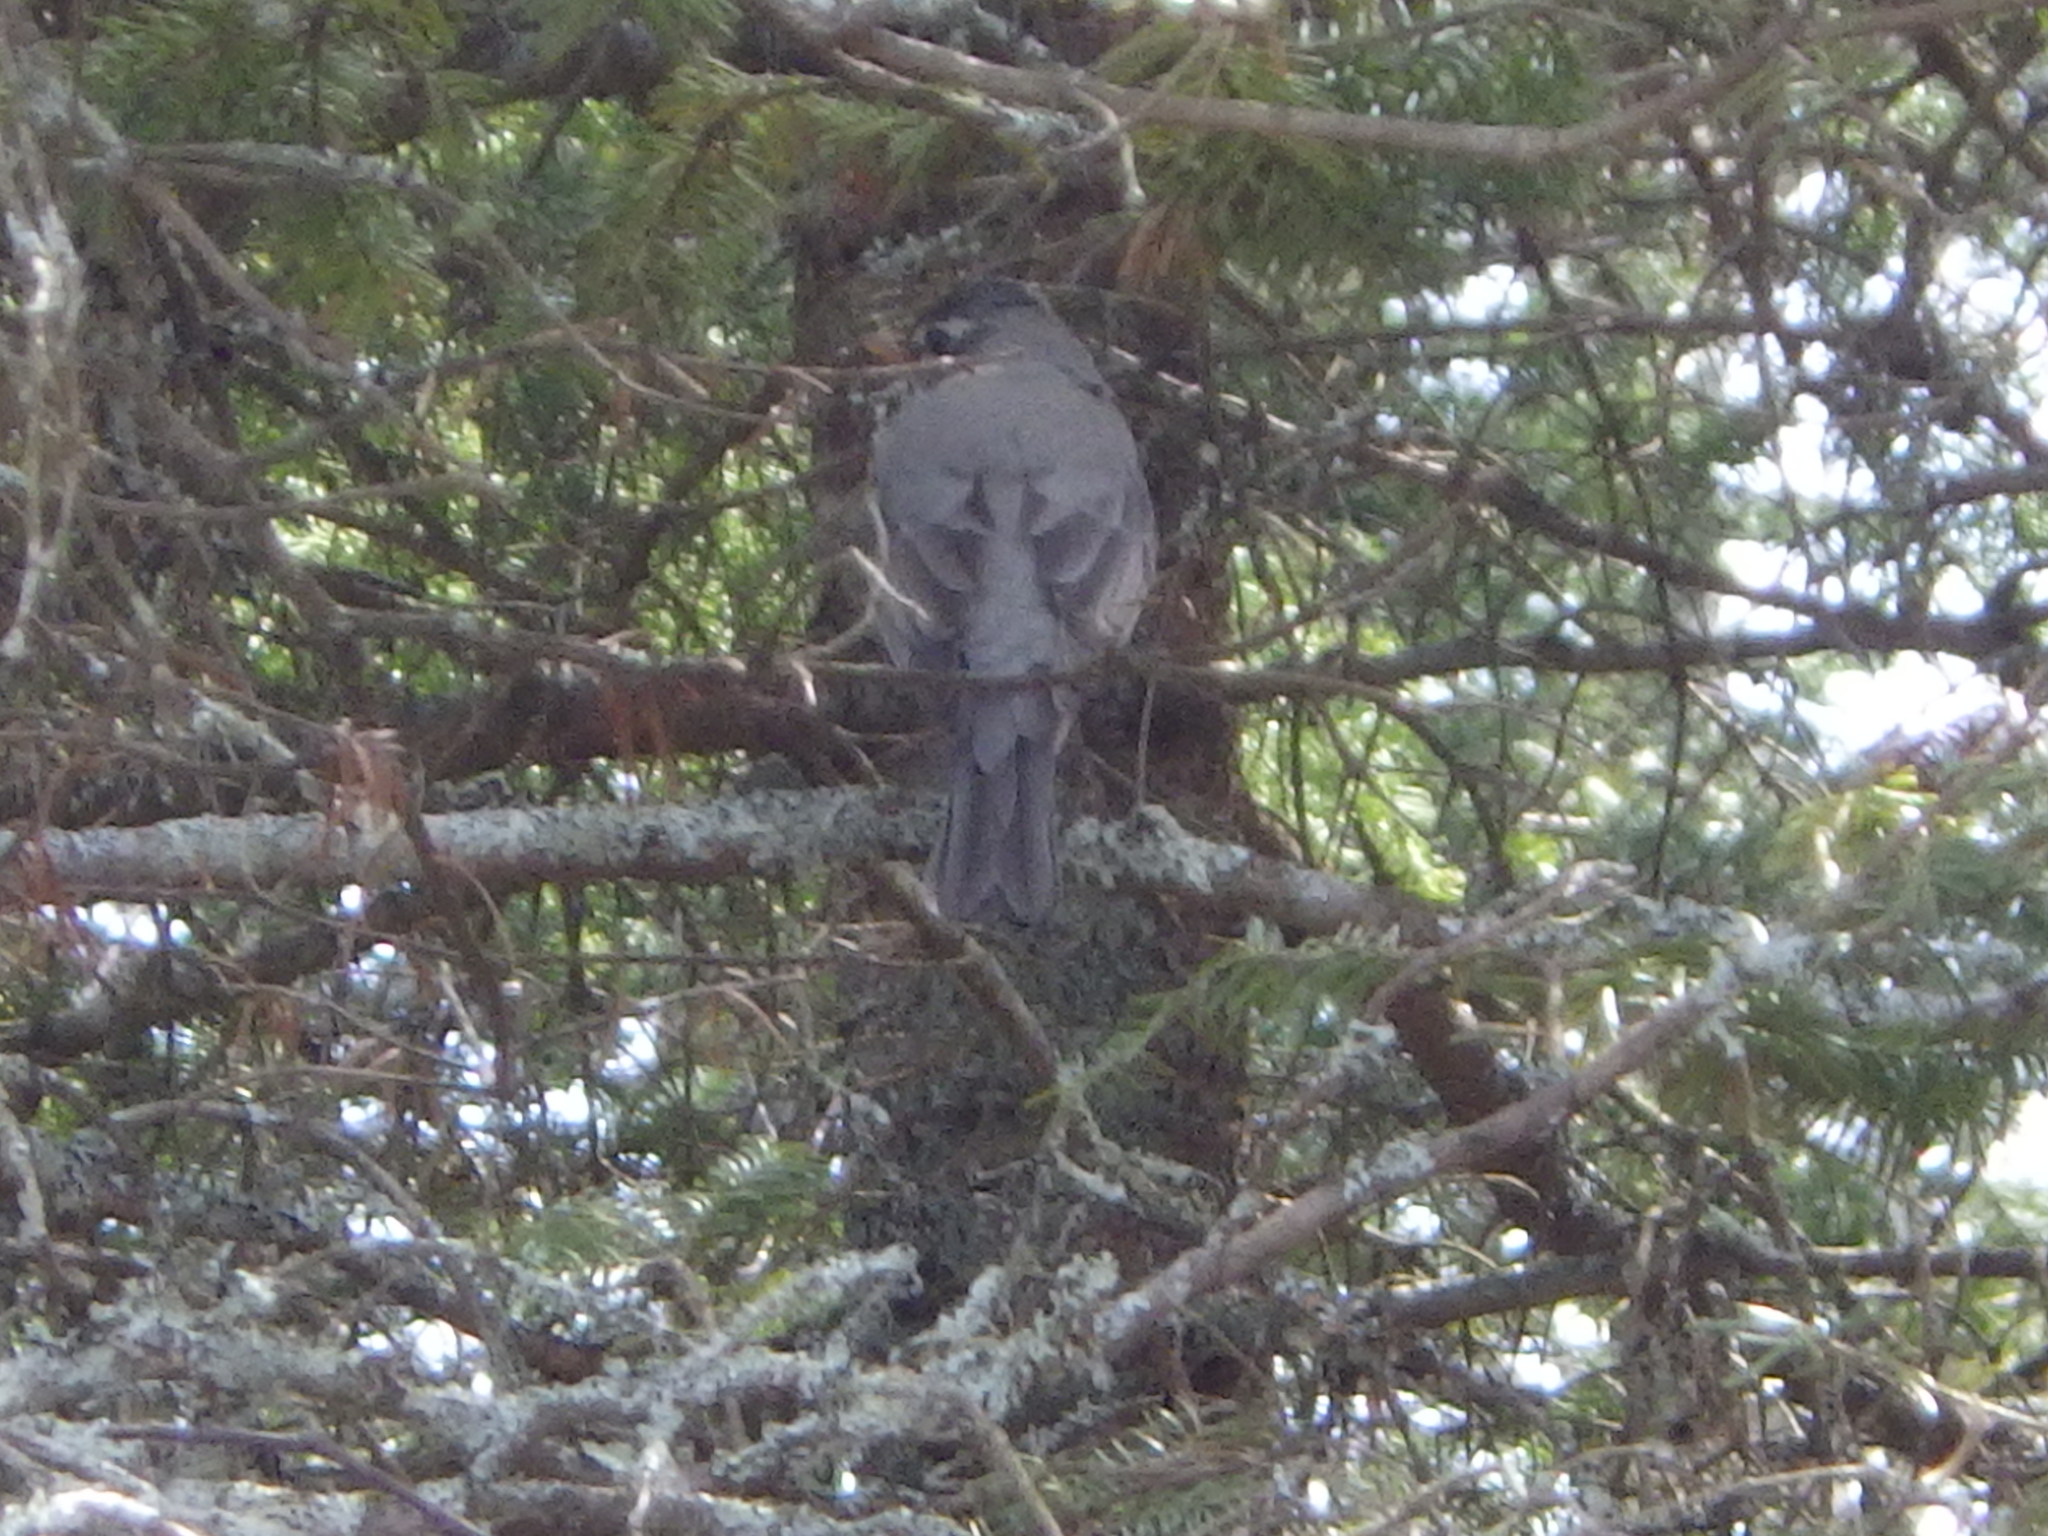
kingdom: Animalia
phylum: Chordata
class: Aves
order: Passeriformes
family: Turdidae
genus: Turdus
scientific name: Turdus migratorius
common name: American robin
